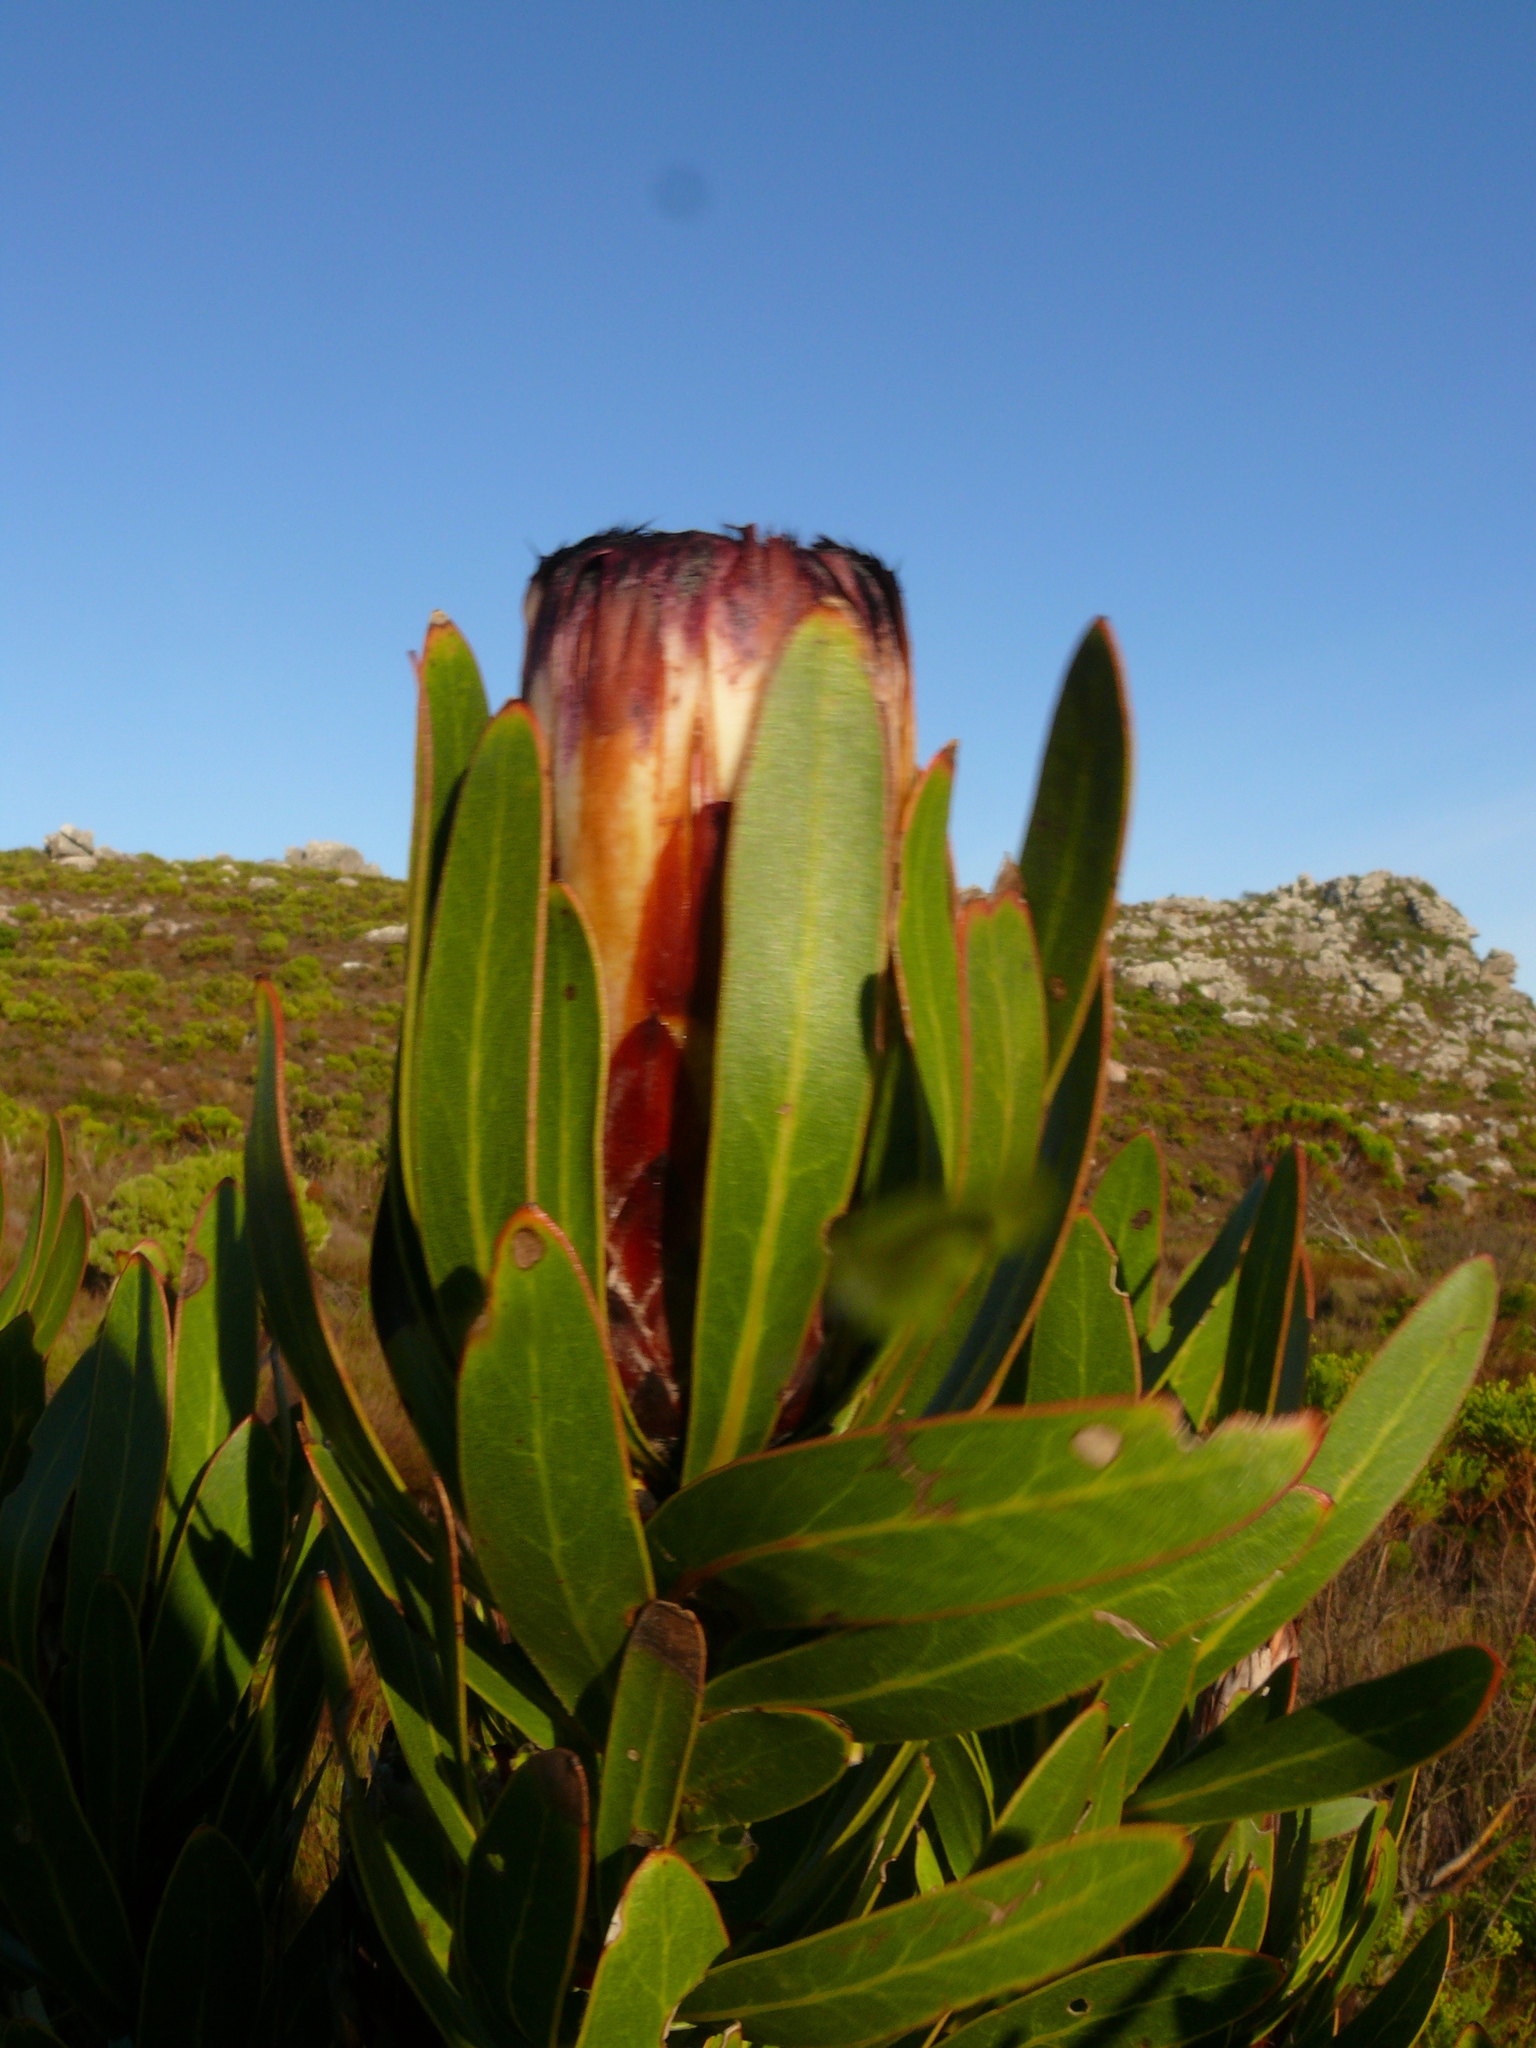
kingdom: Plantae
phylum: Tracheophyta
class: Magnoliopsida
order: Proteales
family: Proteaceae
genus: Protea
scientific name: Protea lepidocarpodendron
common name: Black-bearded protea
